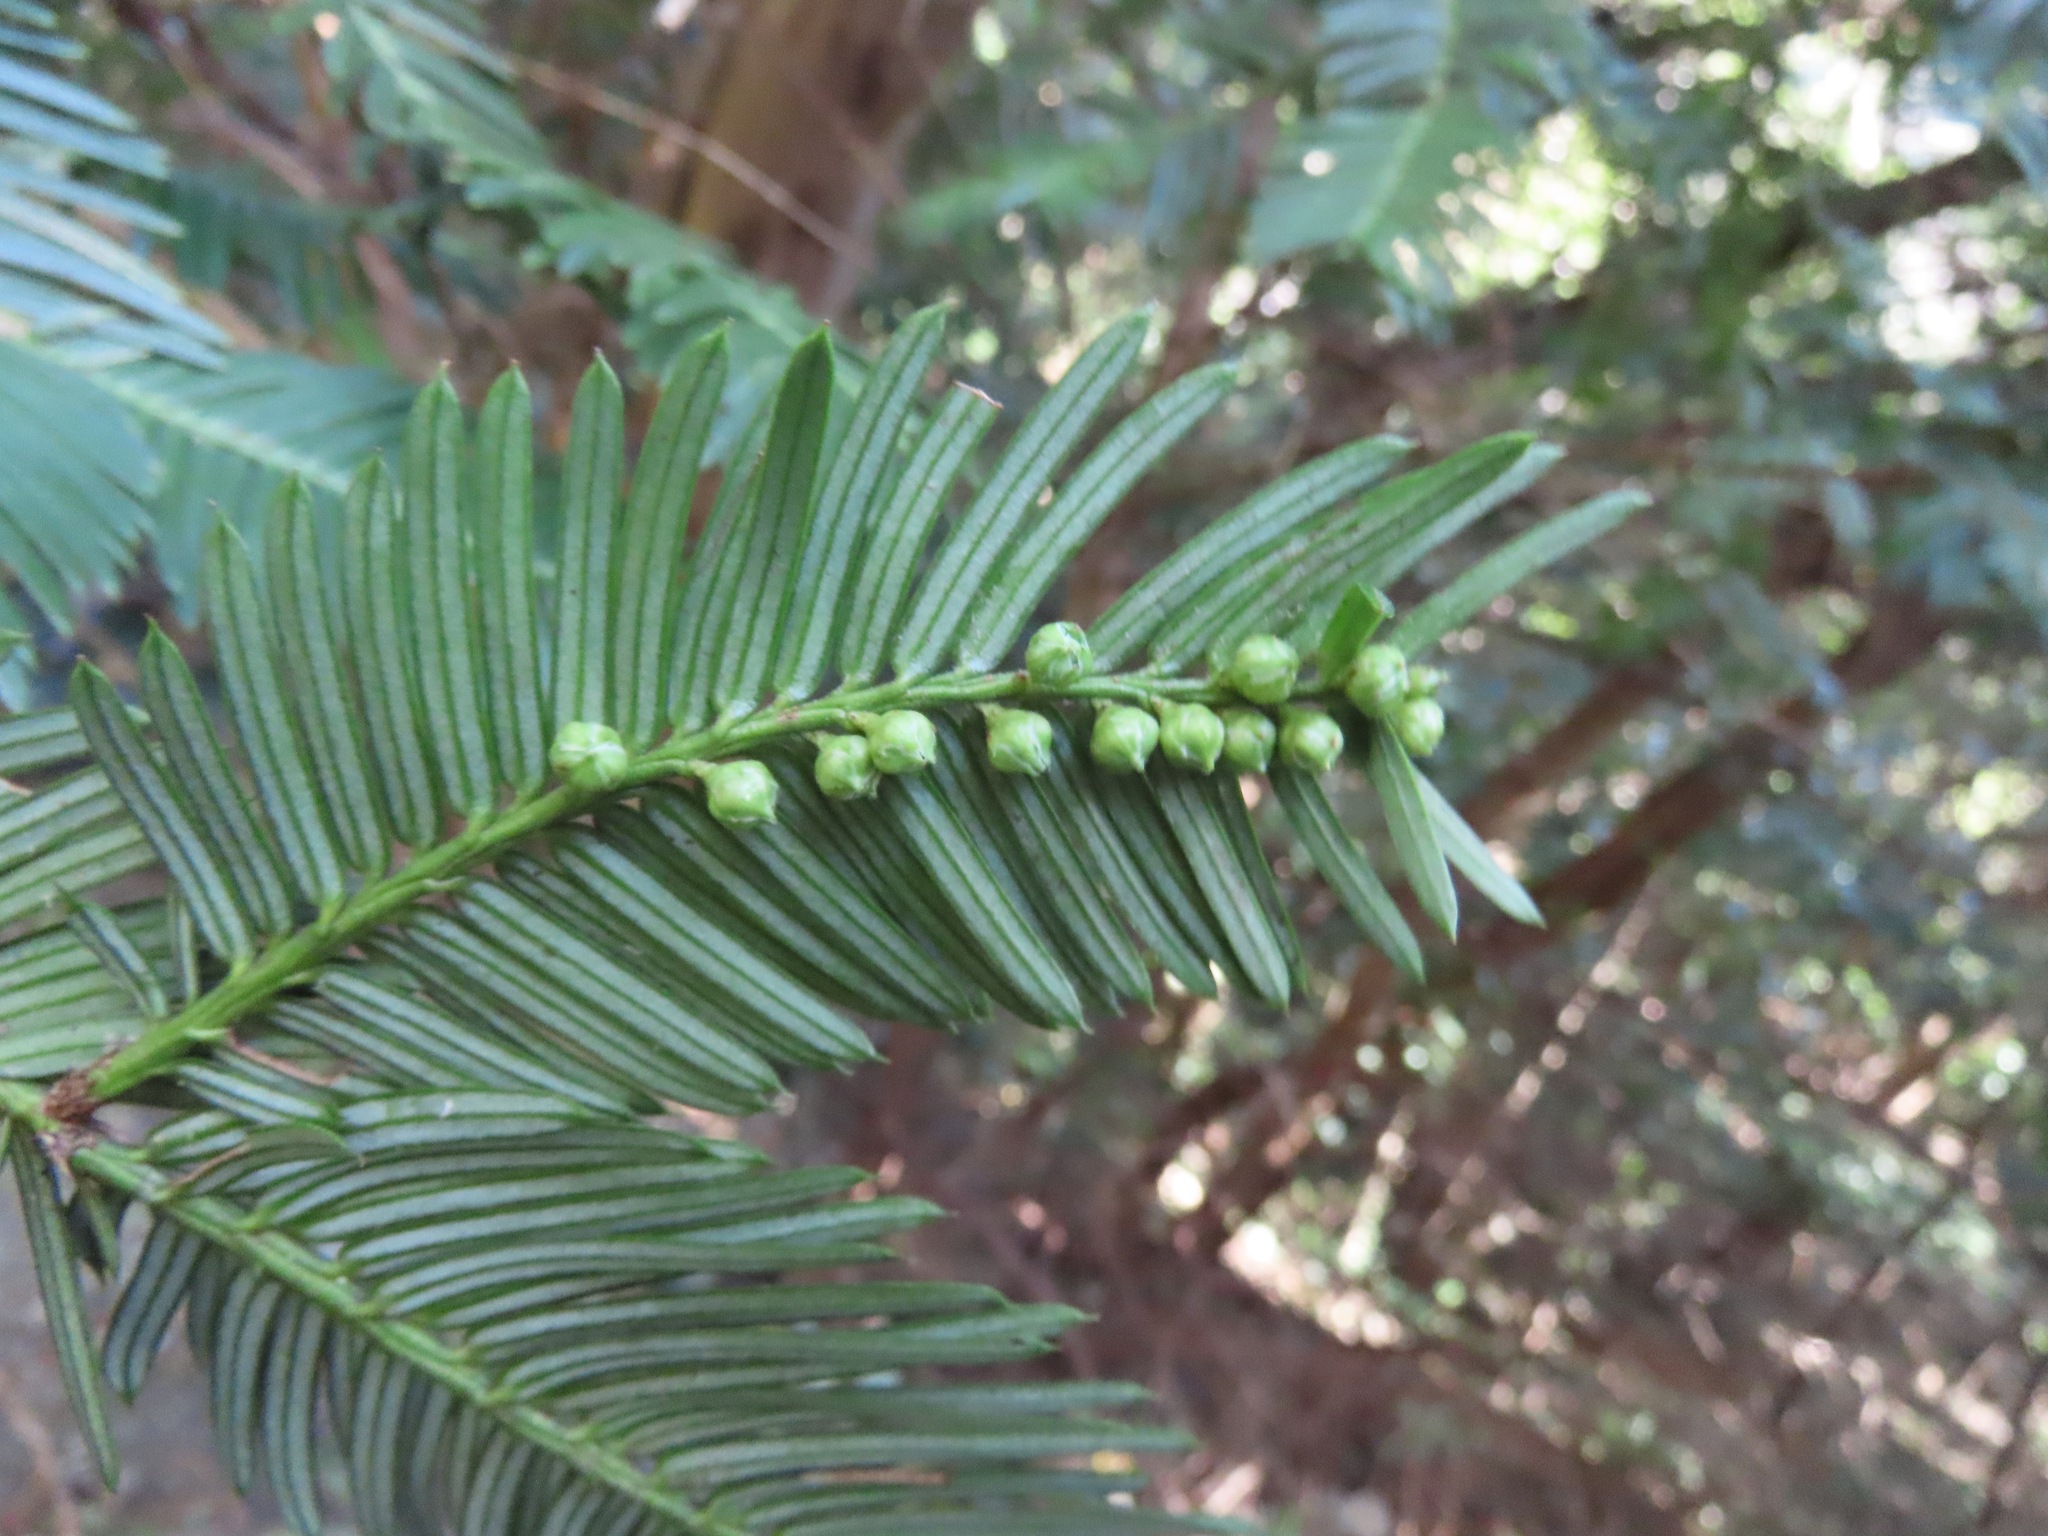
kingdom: Plantae
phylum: Tracheophyta
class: Pinopsida
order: Pinales
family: Cephalotaxaceae
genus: Cephalotaxus
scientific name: Cephalotaxus harringtonia
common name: Japanese plum-yew
